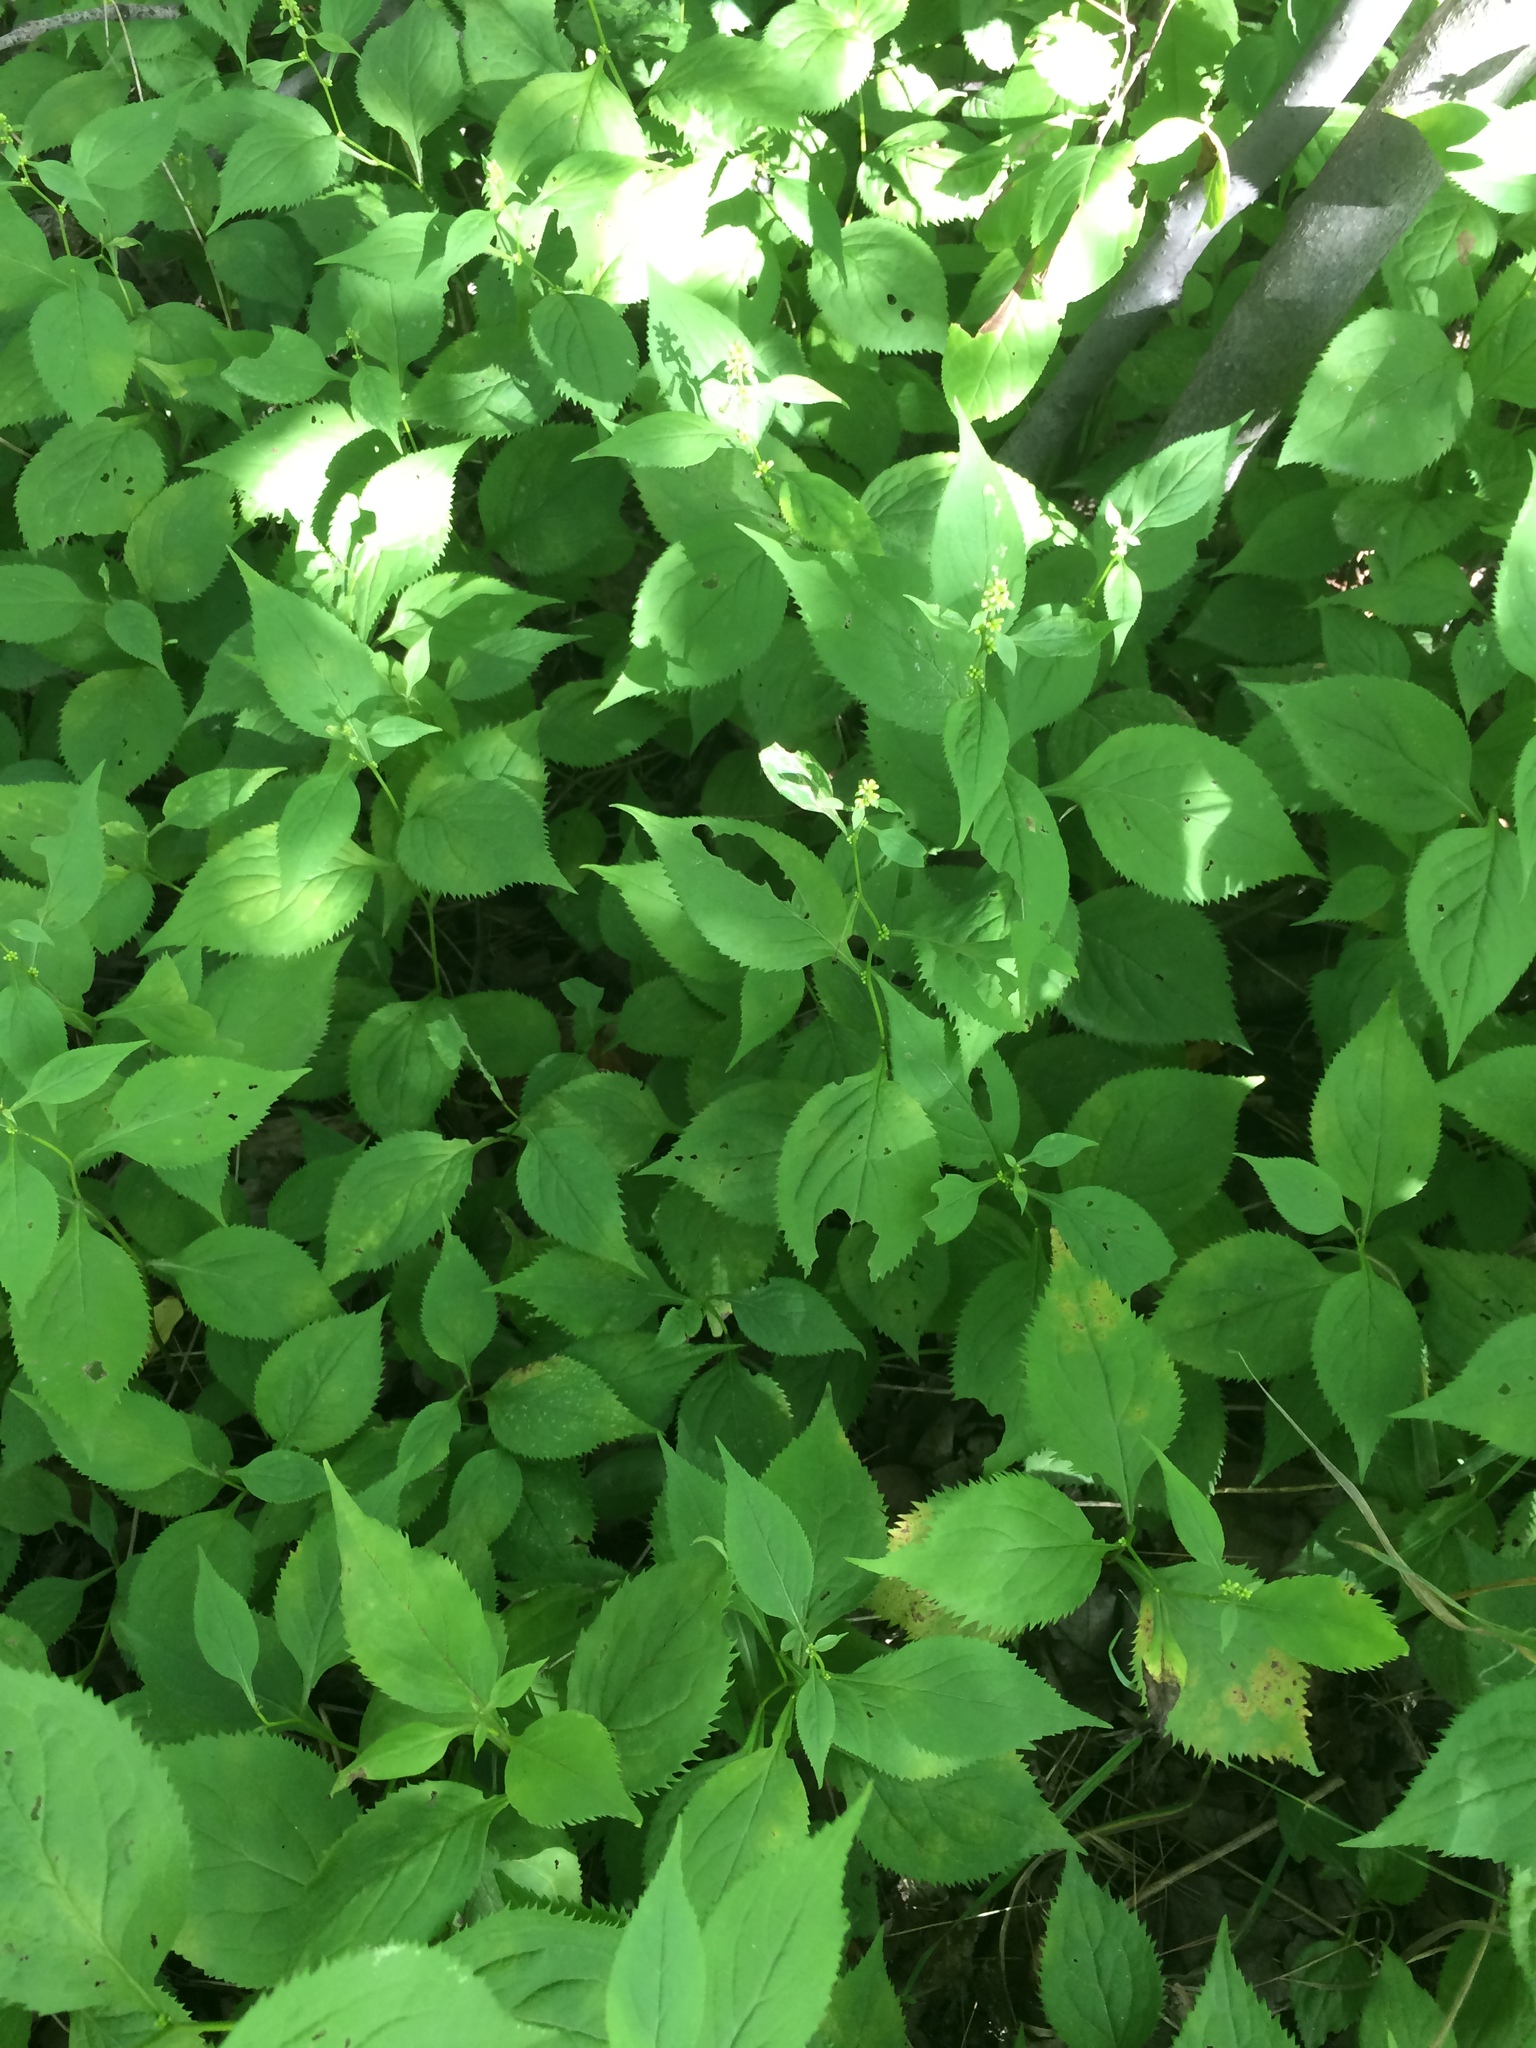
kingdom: Plantae
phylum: Tracheophyta
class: Magnoliopsida
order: Asterales
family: Asteraceae
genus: Solidago
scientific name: Solidago flexicaulis
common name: Zig-zag goldenrod
